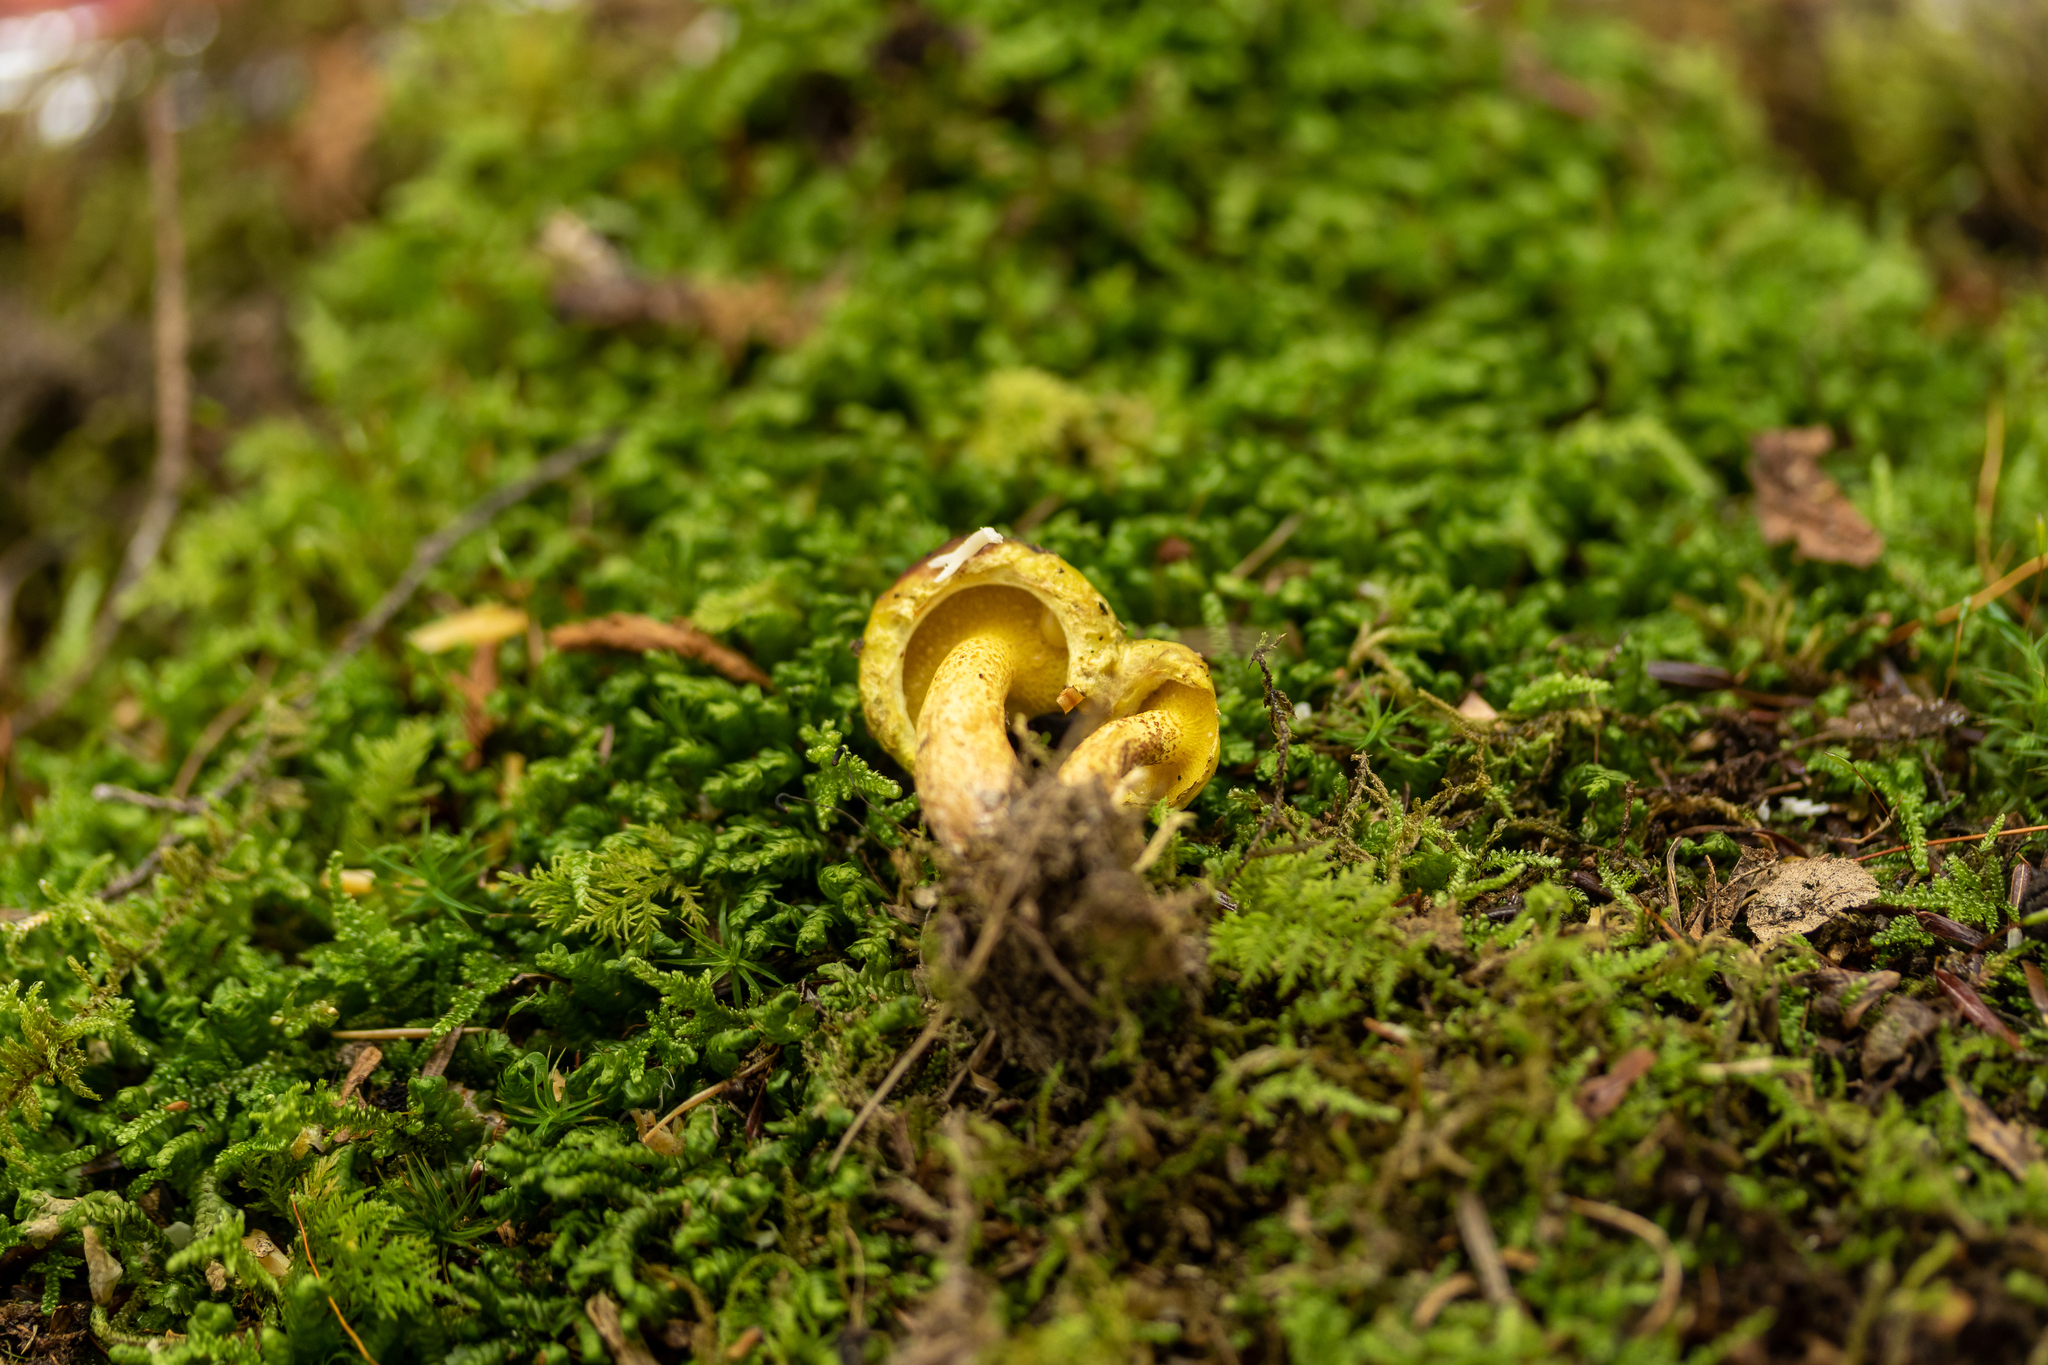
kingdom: Fungi
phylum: Basidiomycota
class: Agaricomycetes
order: Boletales
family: Suillaceae
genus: Suillus
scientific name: Suillus americanus
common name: Chicken fat mushroom
